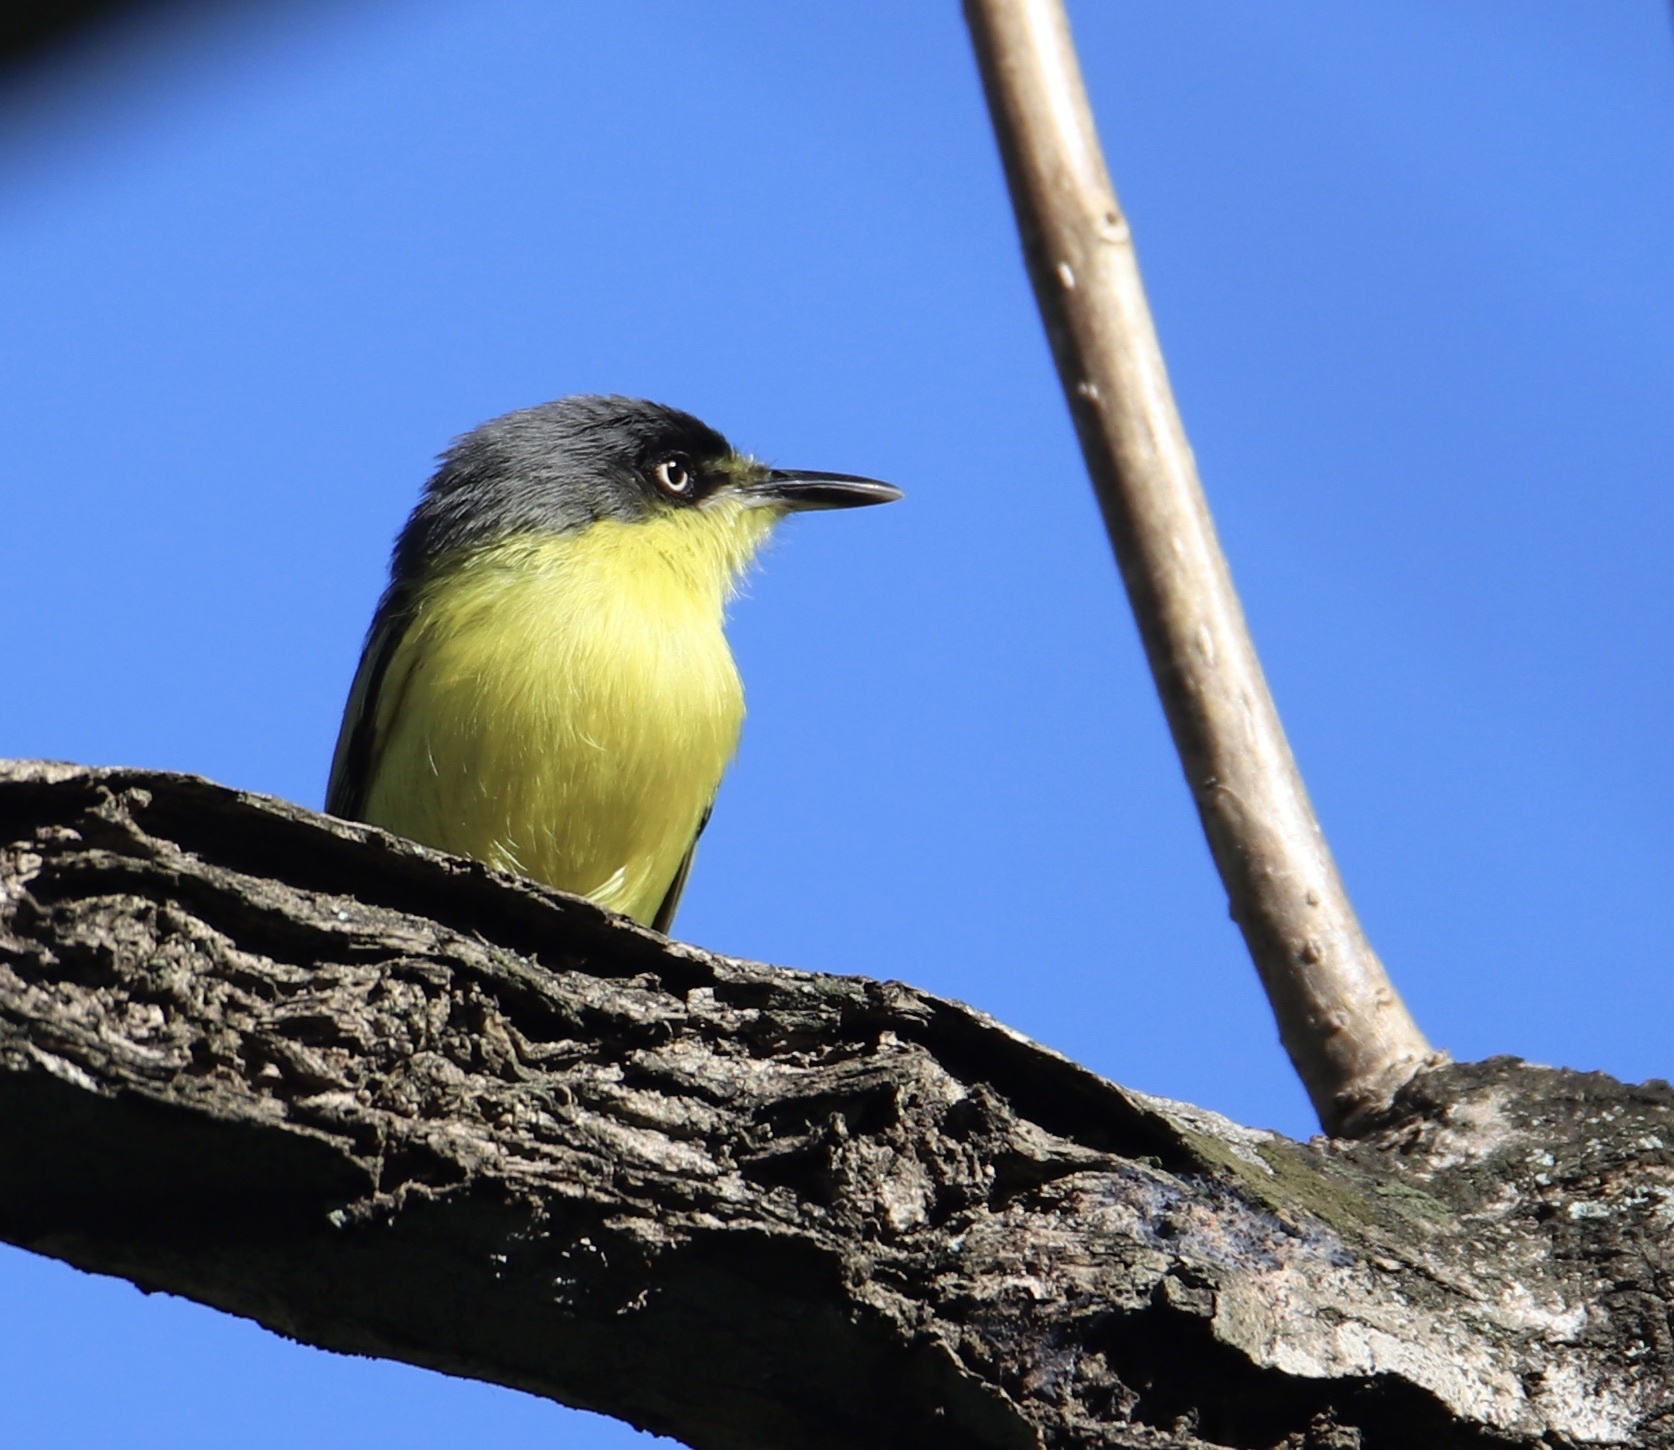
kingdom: Animalia
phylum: Chordata
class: Aves
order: Passeriformes
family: Tyrannidae
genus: Todirostrum
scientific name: Todirostrum cinereum
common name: Common tody-flycatcher
